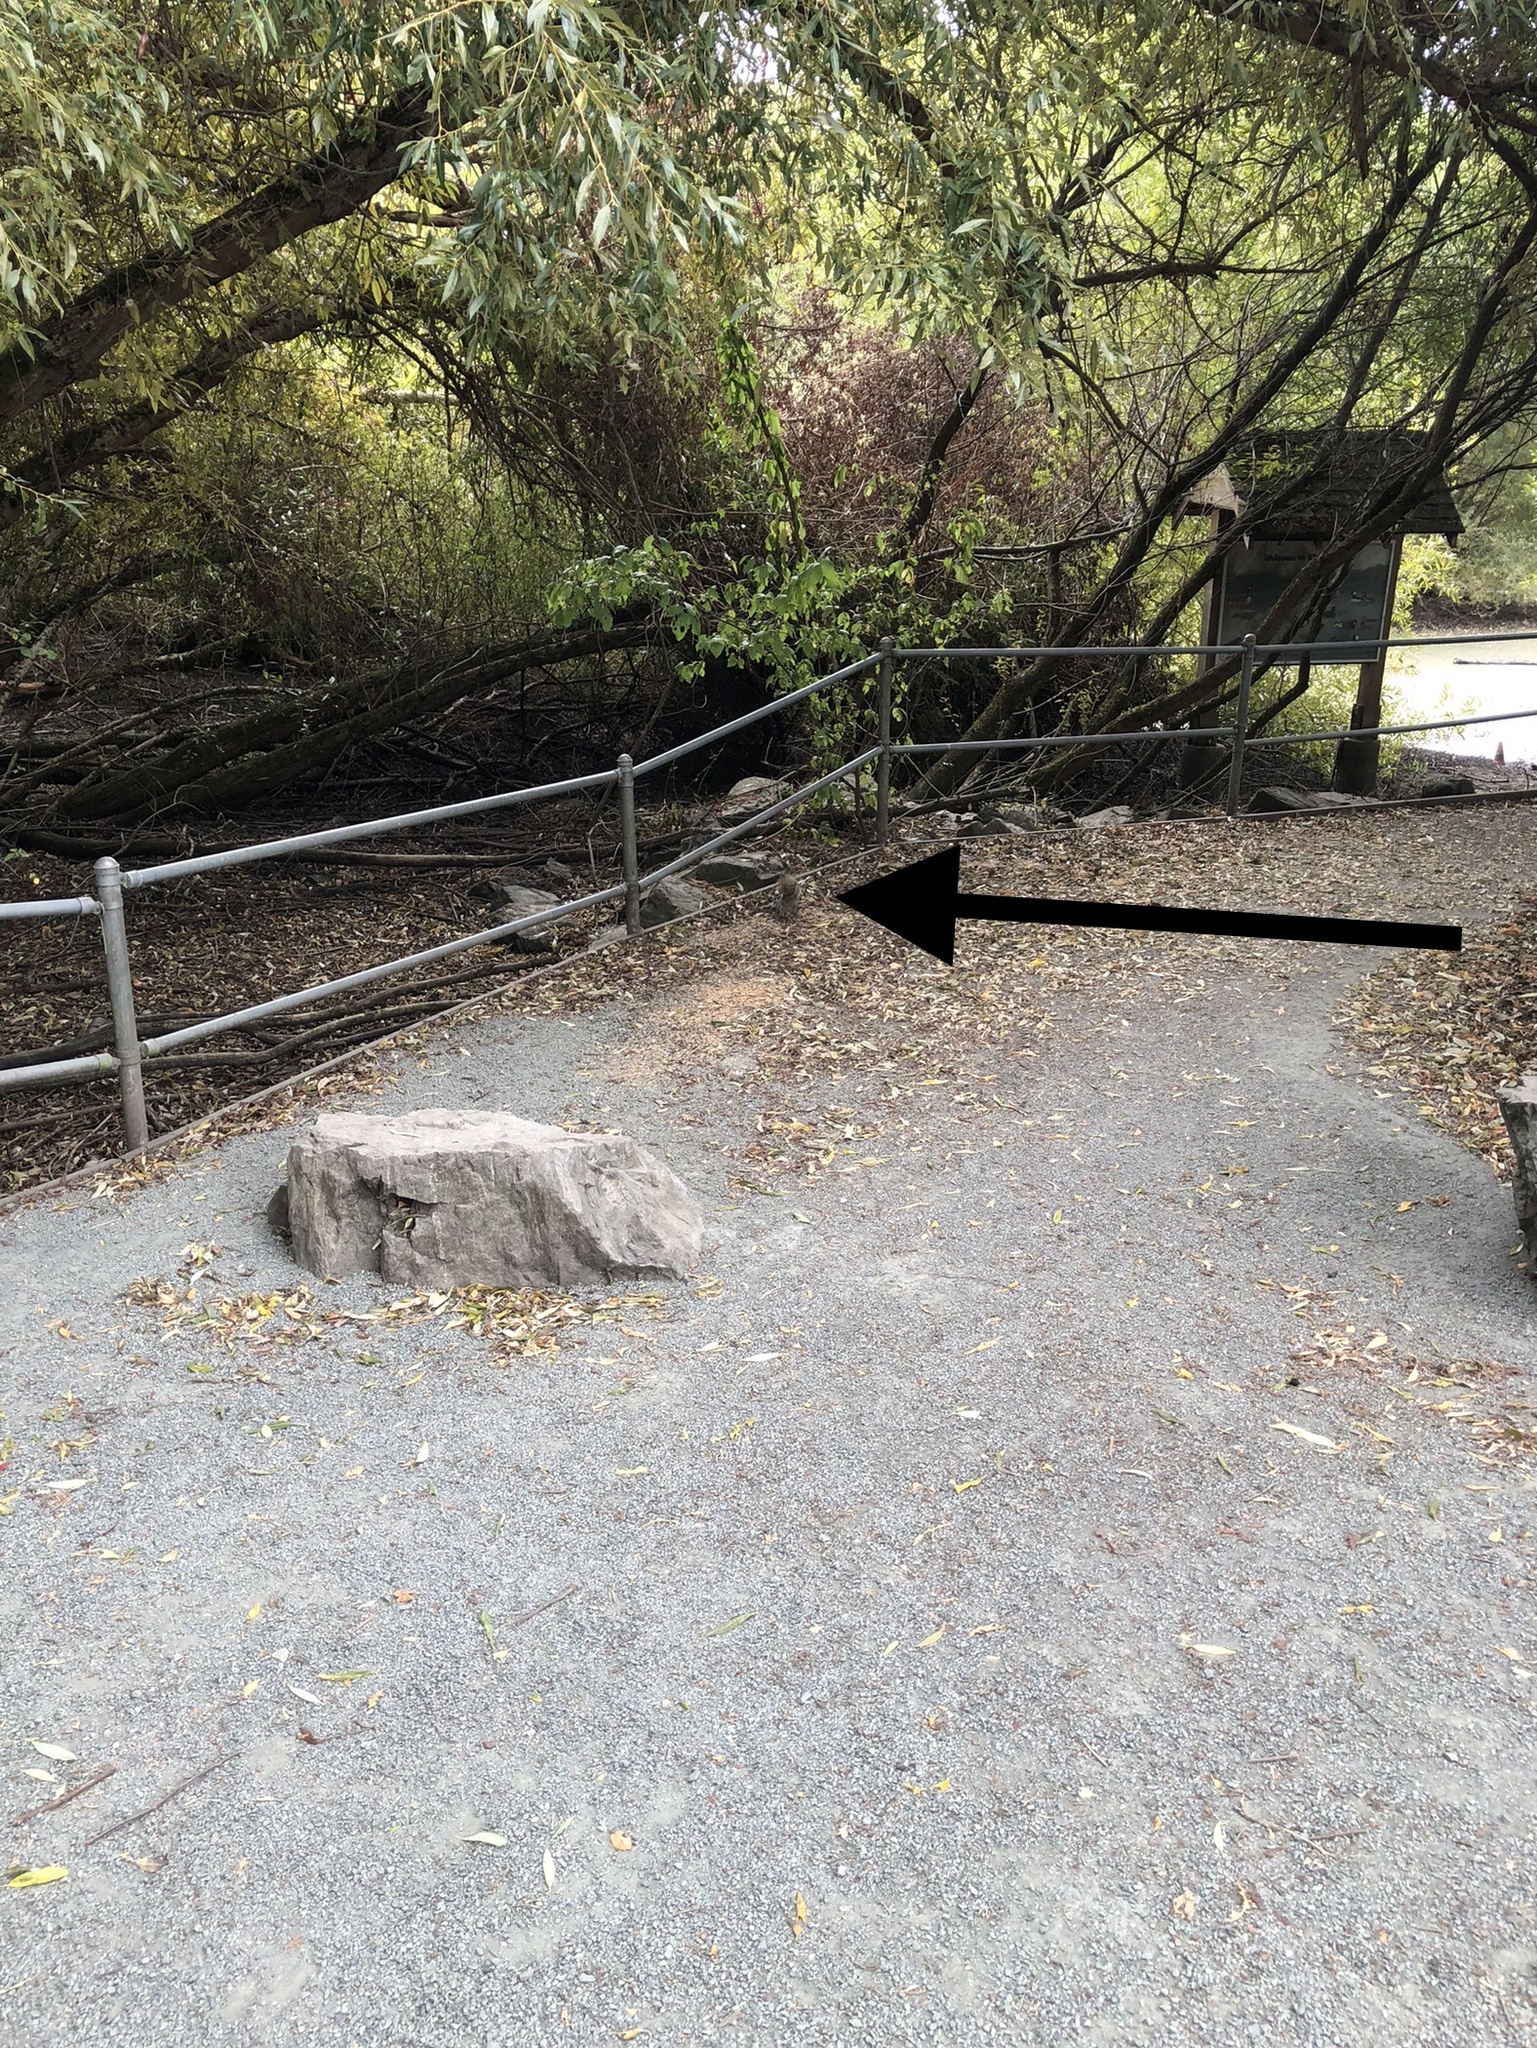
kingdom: Animalia
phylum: Chordata
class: Mammalia
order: Rodentia
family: Sciuridae
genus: Sciurus
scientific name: Sciurus carolinensis
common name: Eastern gray squirrel
